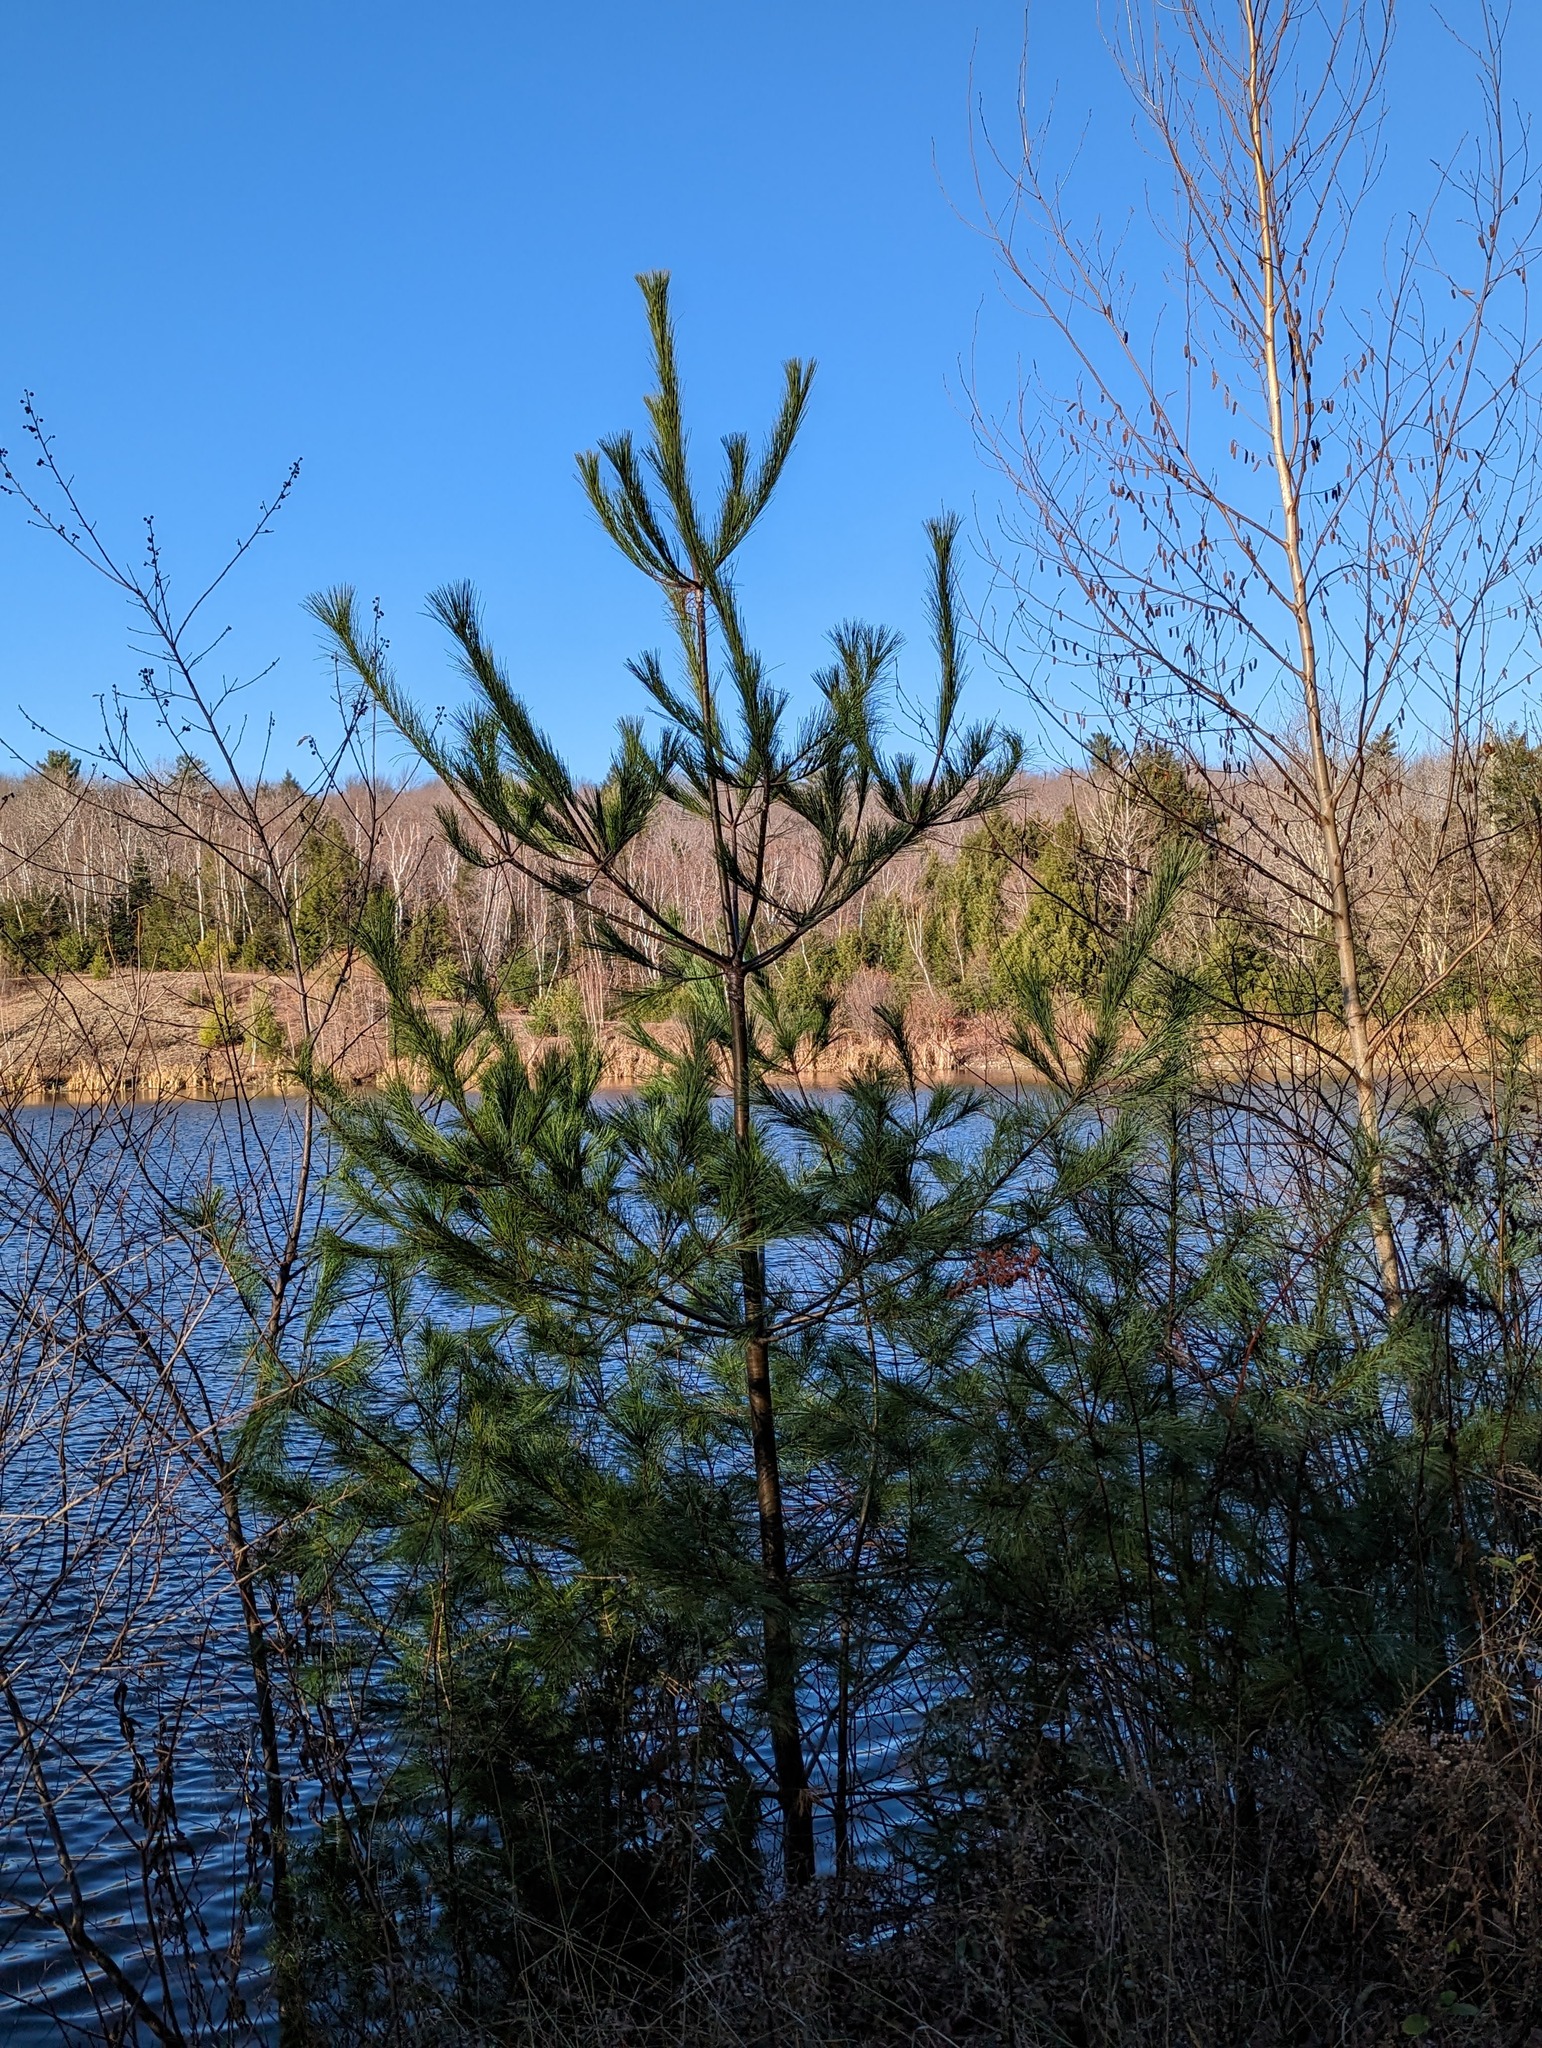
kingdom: Plantae
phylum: Tracheophyta
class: Pinopsida
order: Pinales
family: Pinaceae
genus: Pinus
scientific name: Pinus strobus
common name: Weymouth pine
